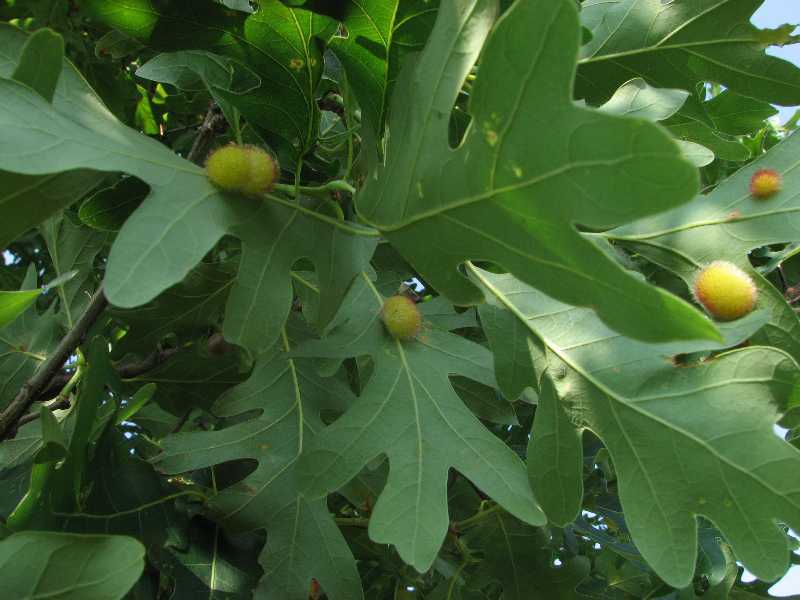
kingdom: Plantae
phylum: Tracheophyta
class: Magnoliopsida
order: Fagales
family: Fagaceae
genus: Quercus
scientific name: Quercus alba
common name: White oak
